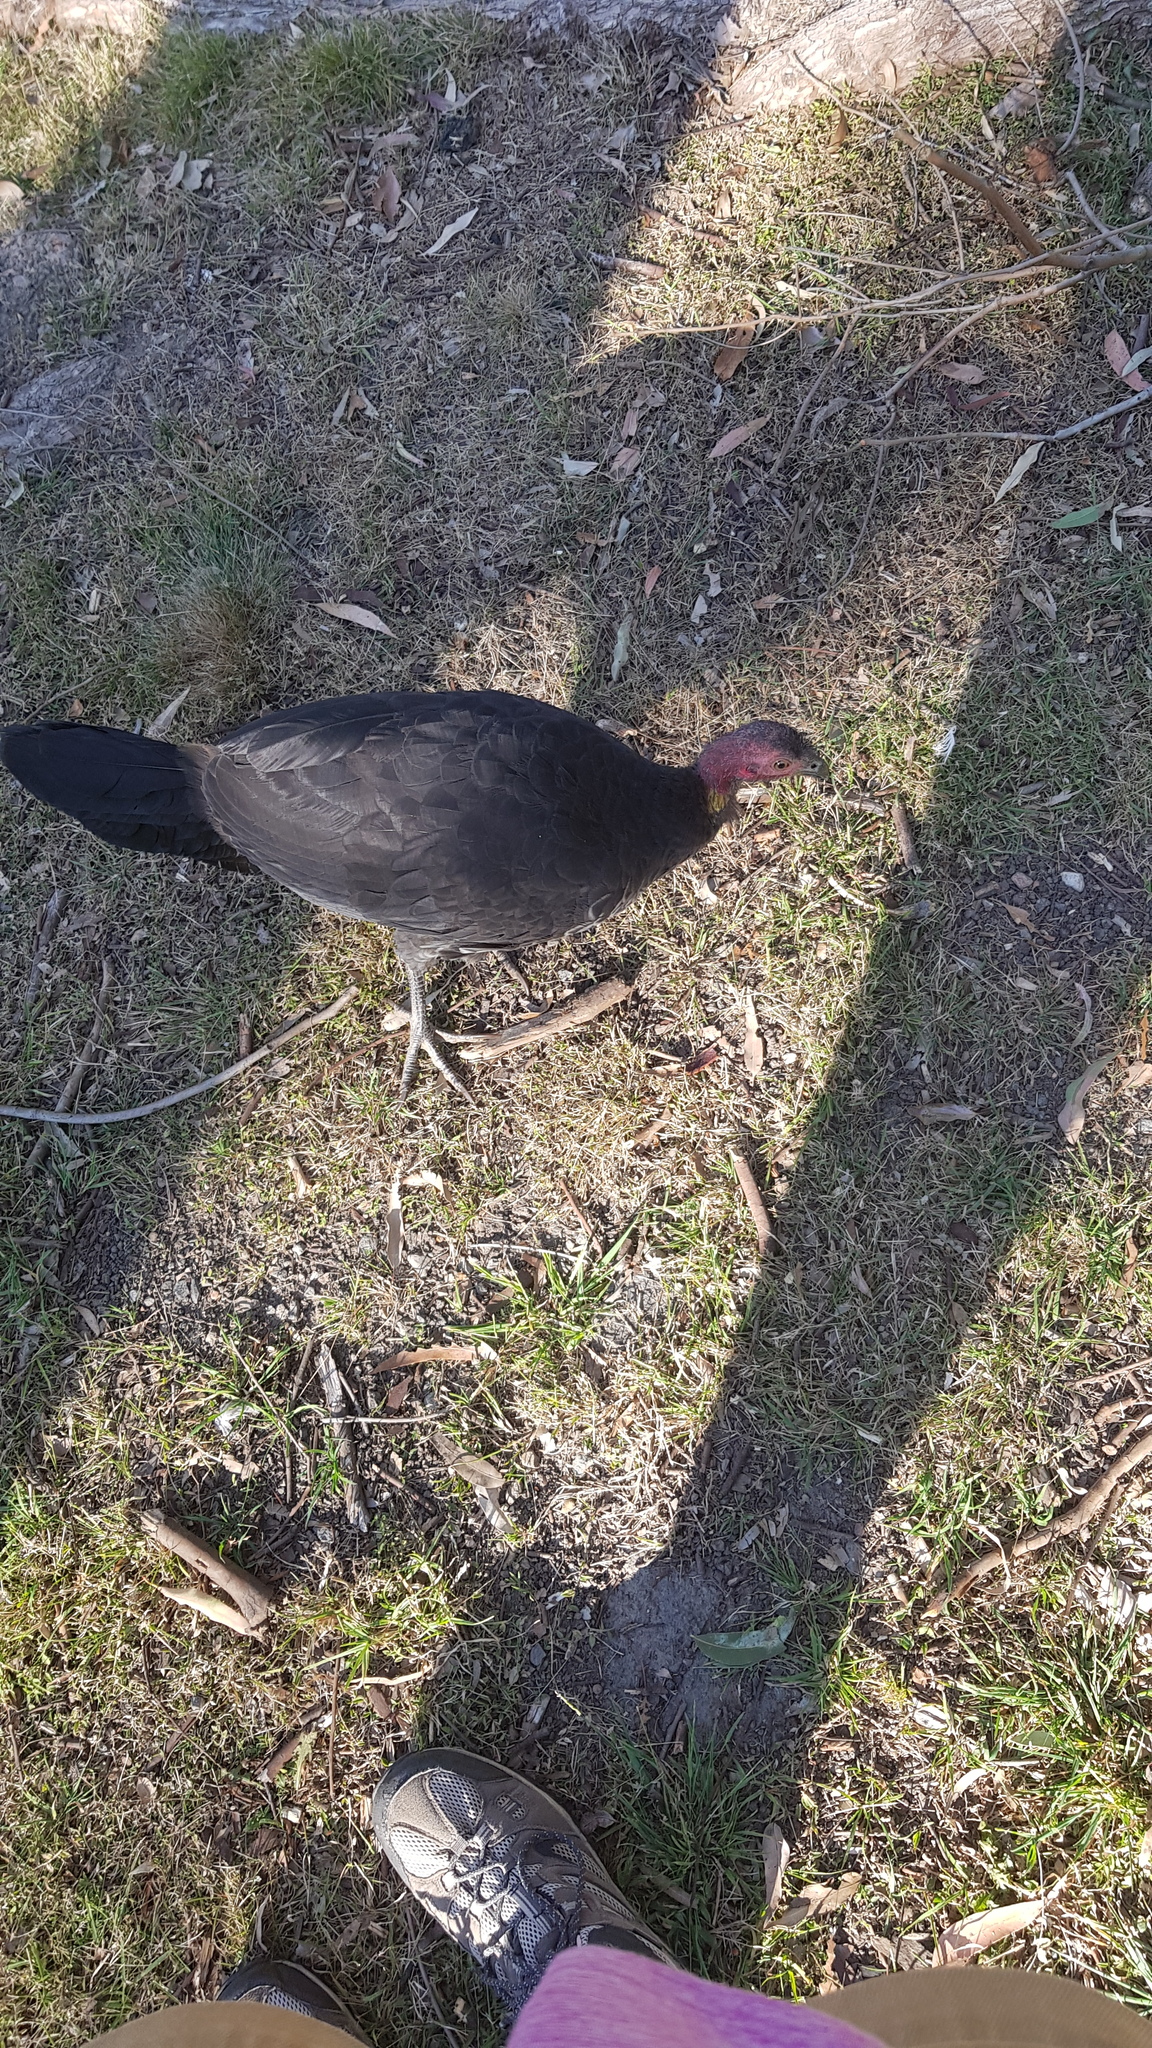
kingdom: Animalia
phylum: Chordata
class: Aves
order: Galliformes
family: Megapodiidae
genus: Alectura
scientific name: Alectura lathami
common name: Australian brushturkey
